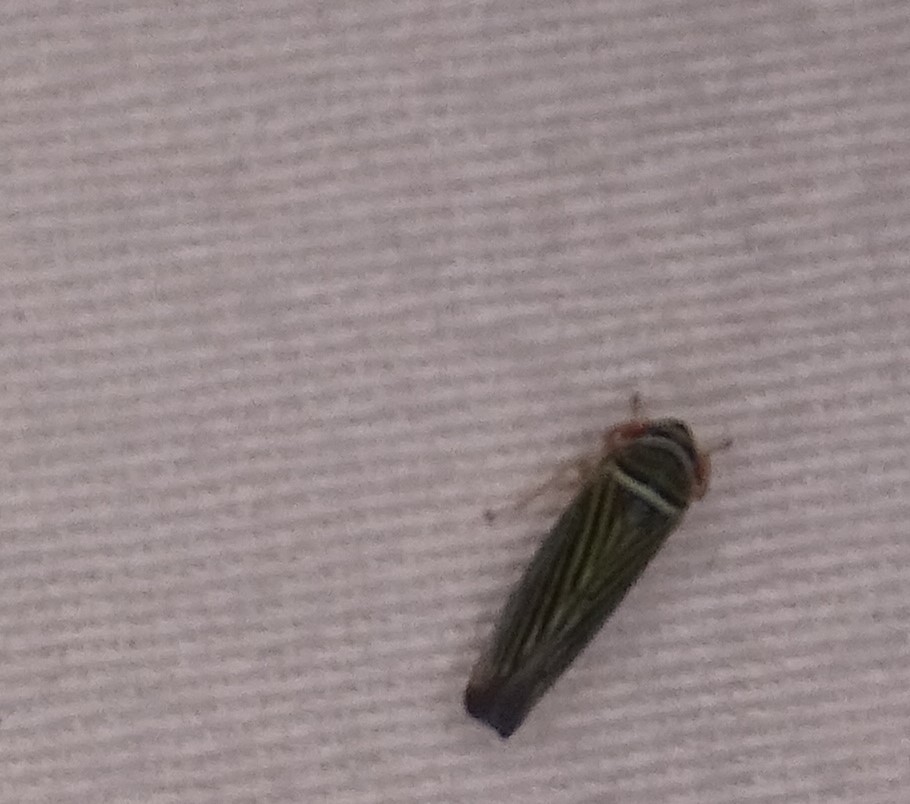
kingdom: Animalia
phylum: Arthropoda
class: Insecta
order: Hemiptera
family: Cicadellidae
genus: Tylozygus
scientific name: Tylozygus bifidus
